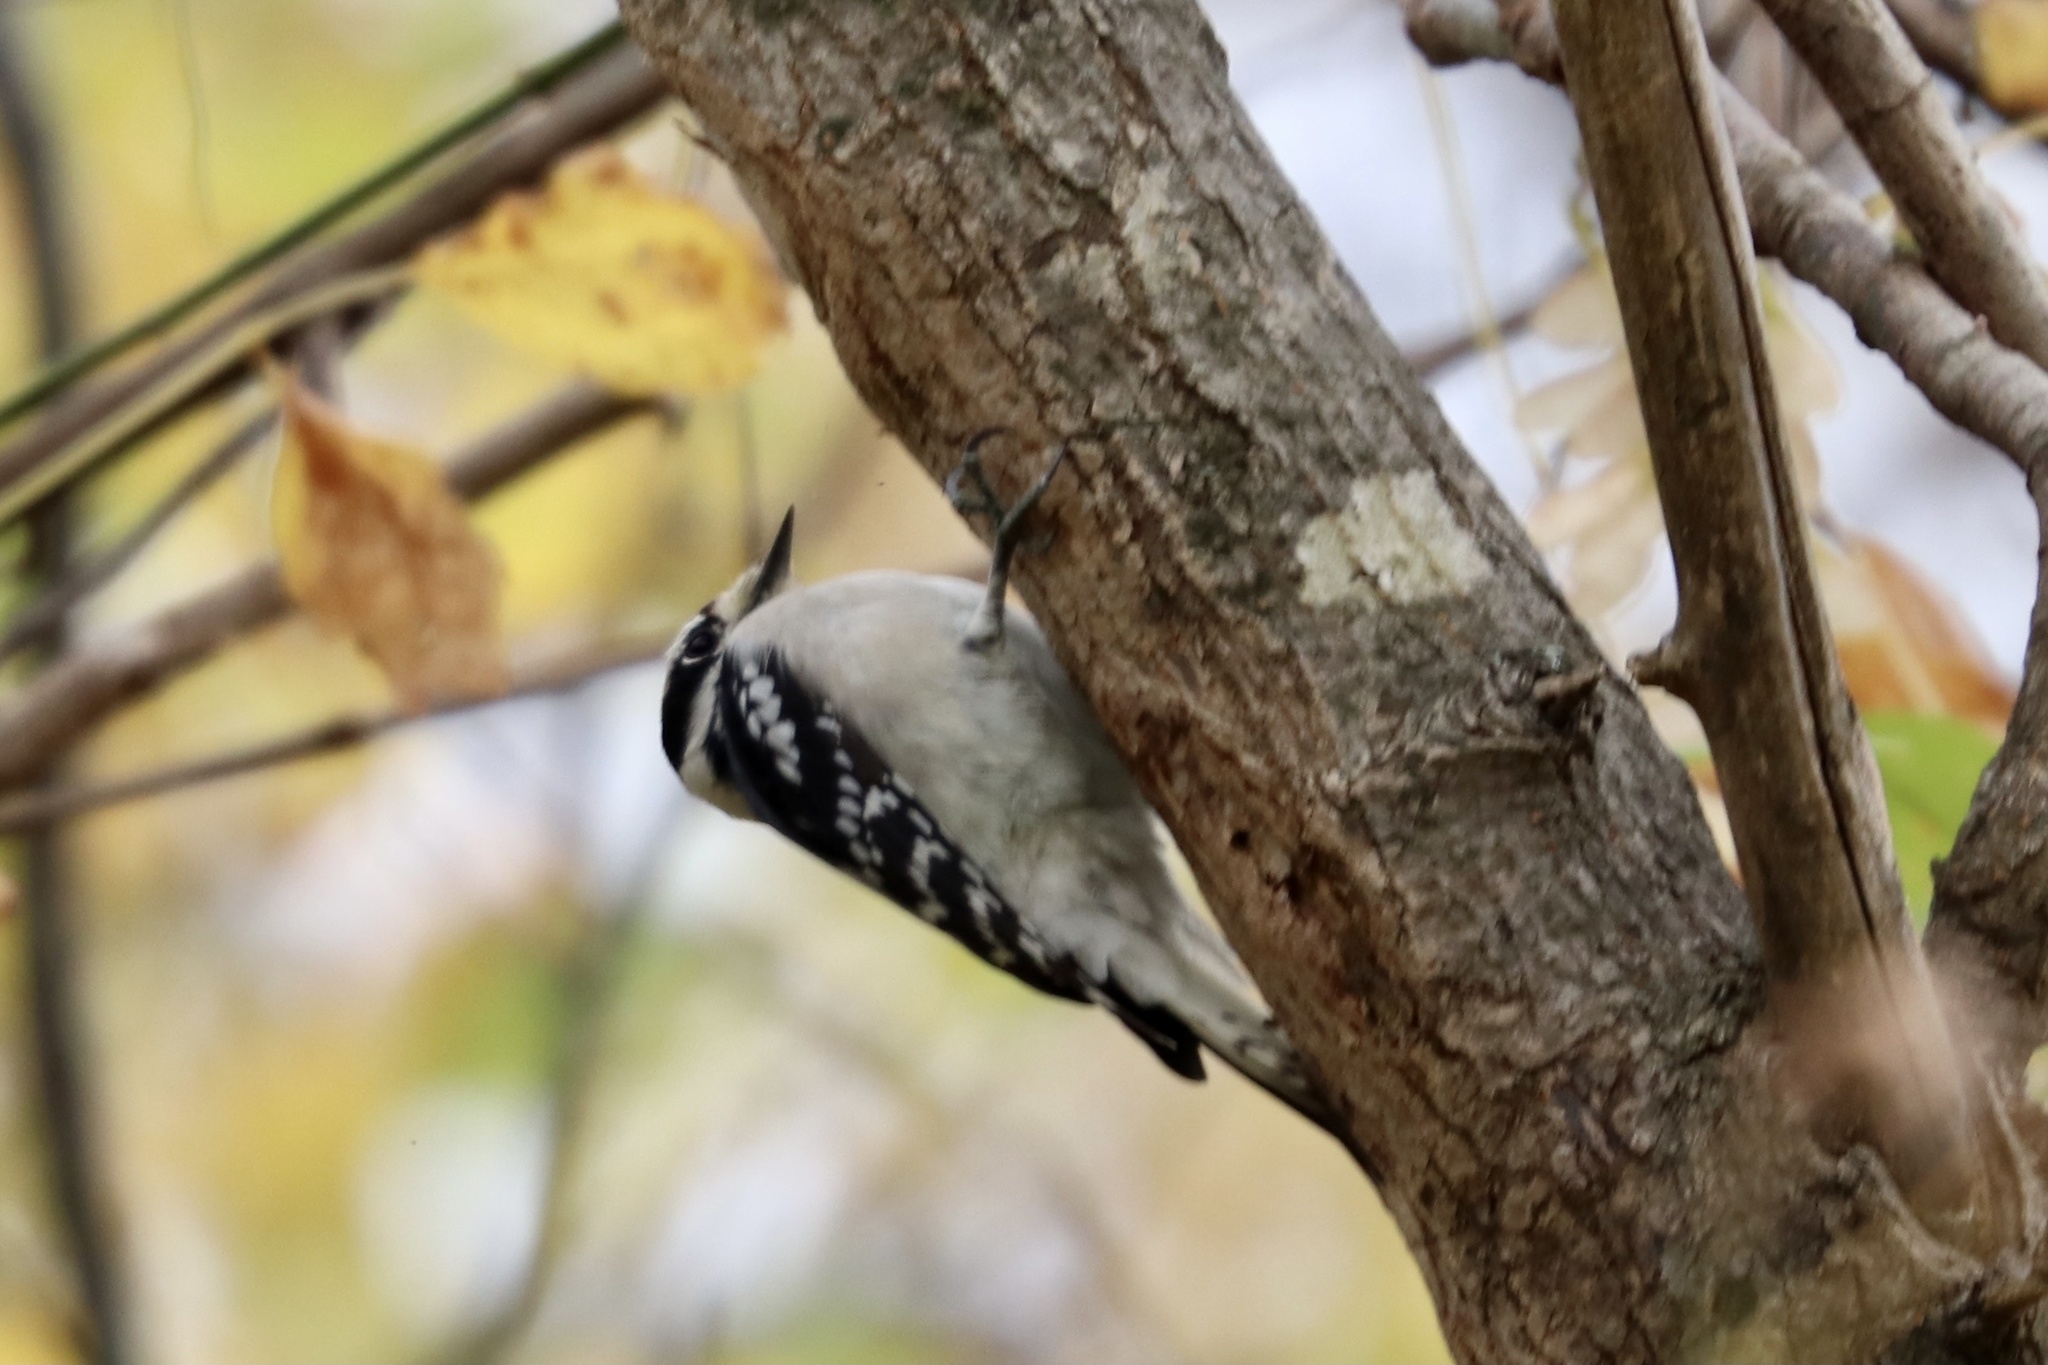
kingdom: Animalia
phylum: Chordata
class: Aves
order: Piciformes
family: Picidae
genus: Dryobates
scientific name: Dryobates pubescens
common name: Downy woodpecker
